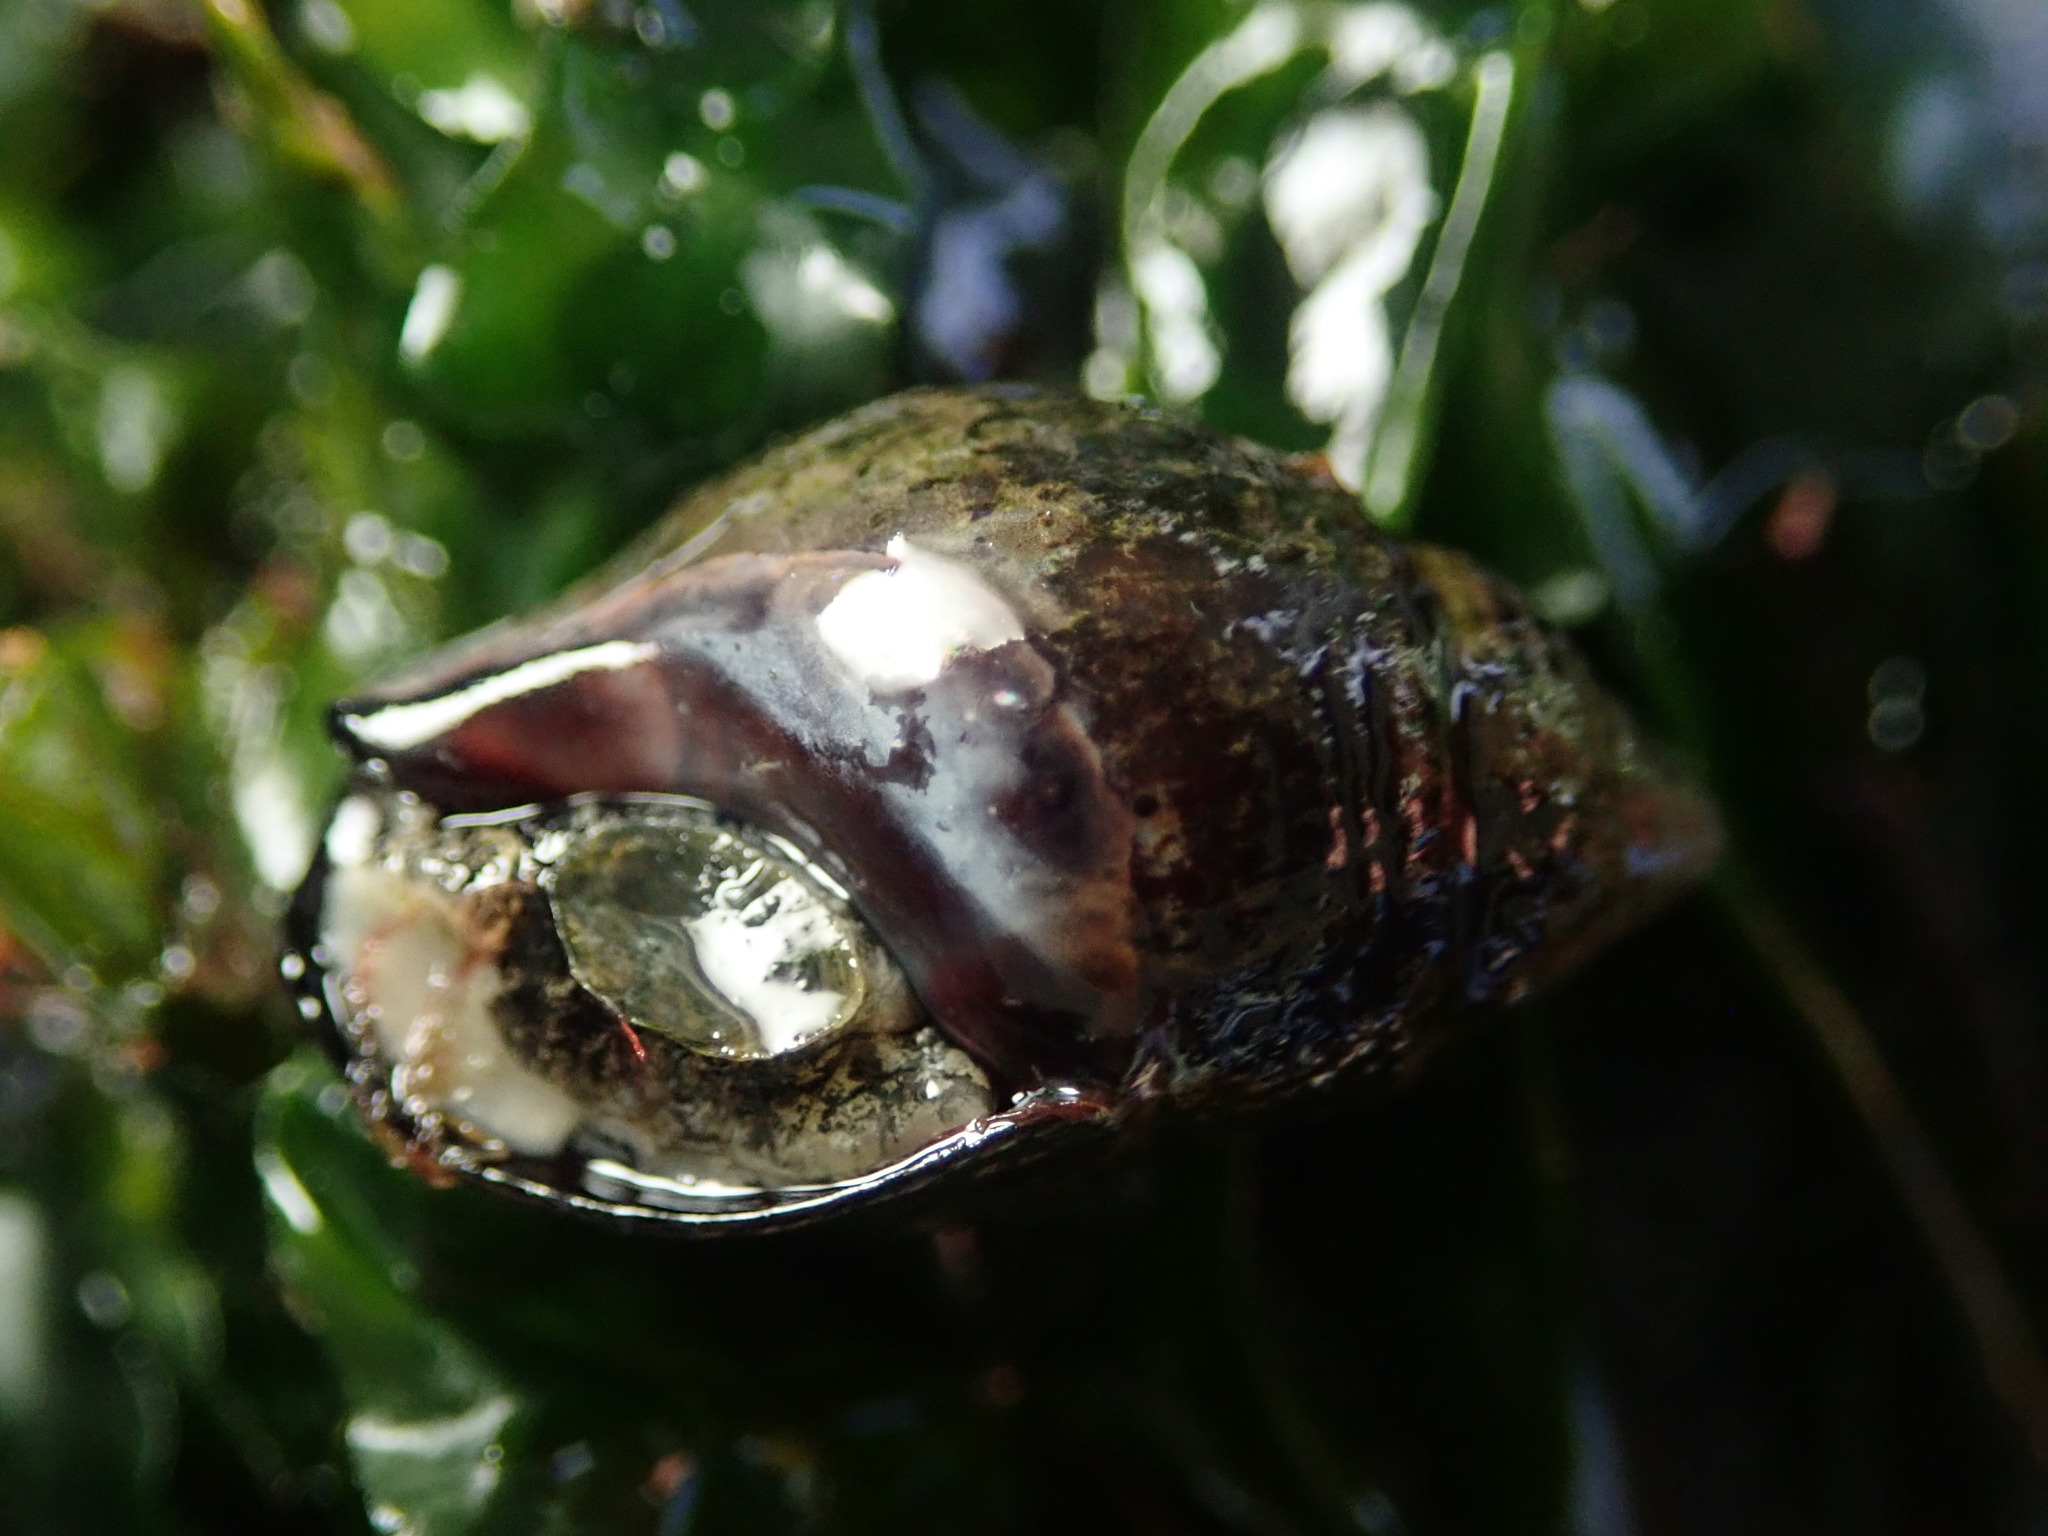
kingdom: Animalia
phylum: Mollusca
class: Gastropoda
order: Neogastropoda
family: Nassariidae
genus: Ilyanassa
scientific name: Ilyanassa obsoleta
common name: Eastern mudsnail
